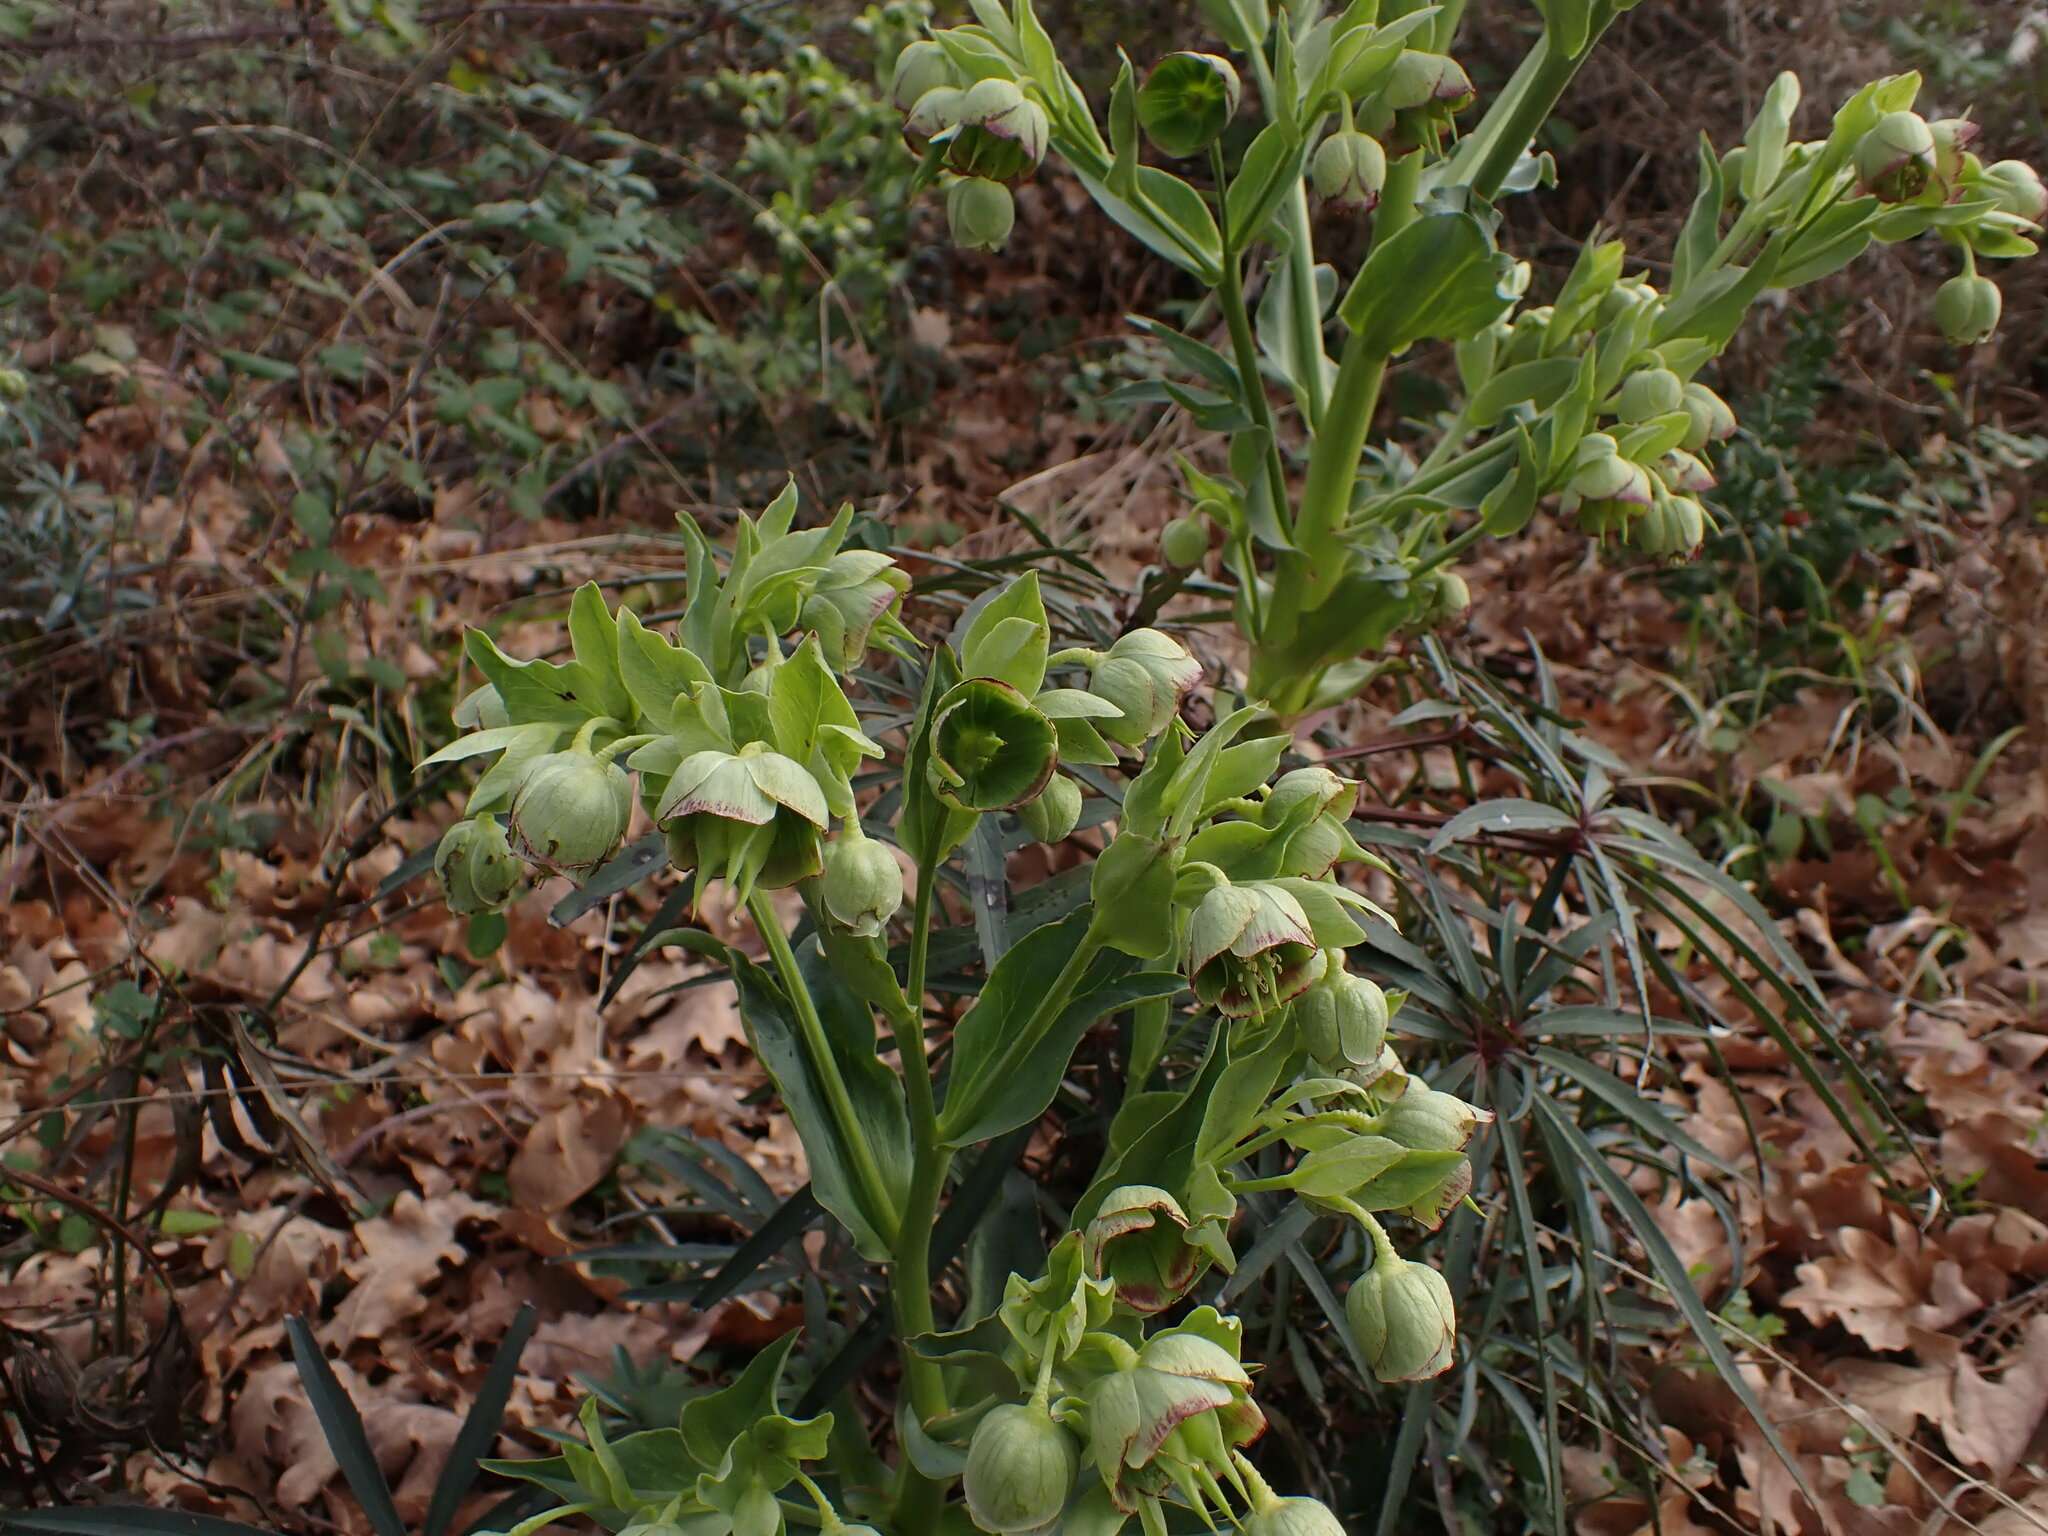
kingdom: Plantae
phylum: Tracheophyta
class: Magnoliopsida
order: Ranunculales
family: Ranunculaceae
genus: Helleborus
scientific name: Helleborus foetidus
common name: Stinking hellebore
